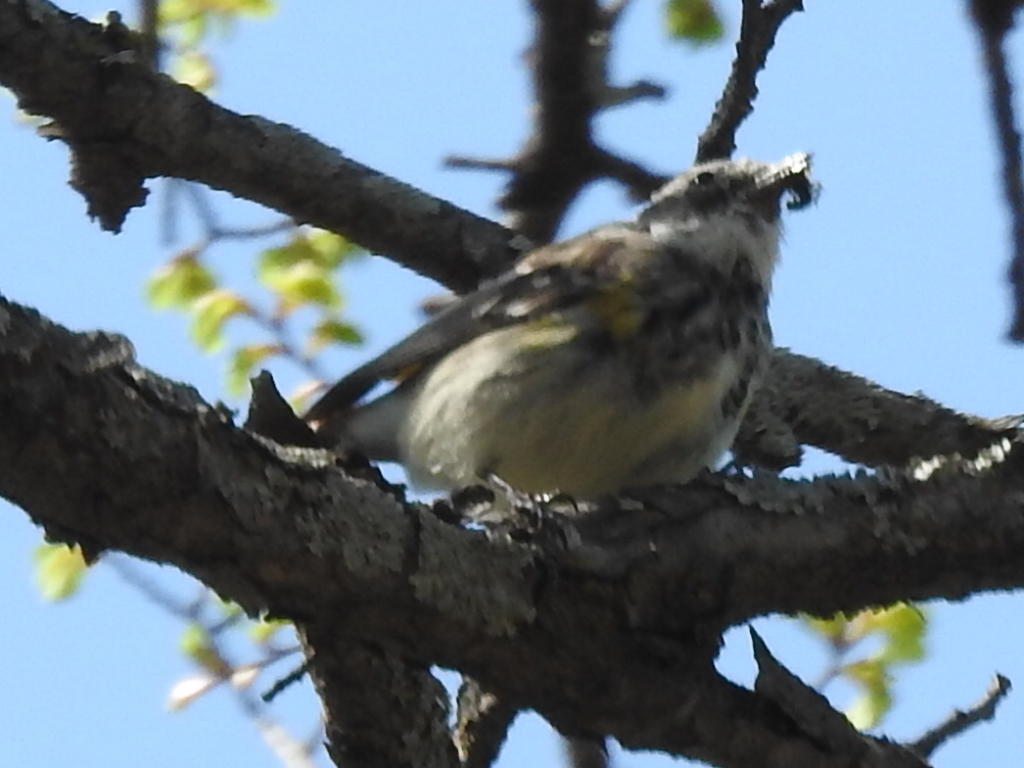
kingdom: Animalia
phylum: Chordata
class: Aves
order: Passeriformes
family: Parulidae
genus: Setophaga
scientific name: Setophaga coronata
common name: Myrtle warbler
